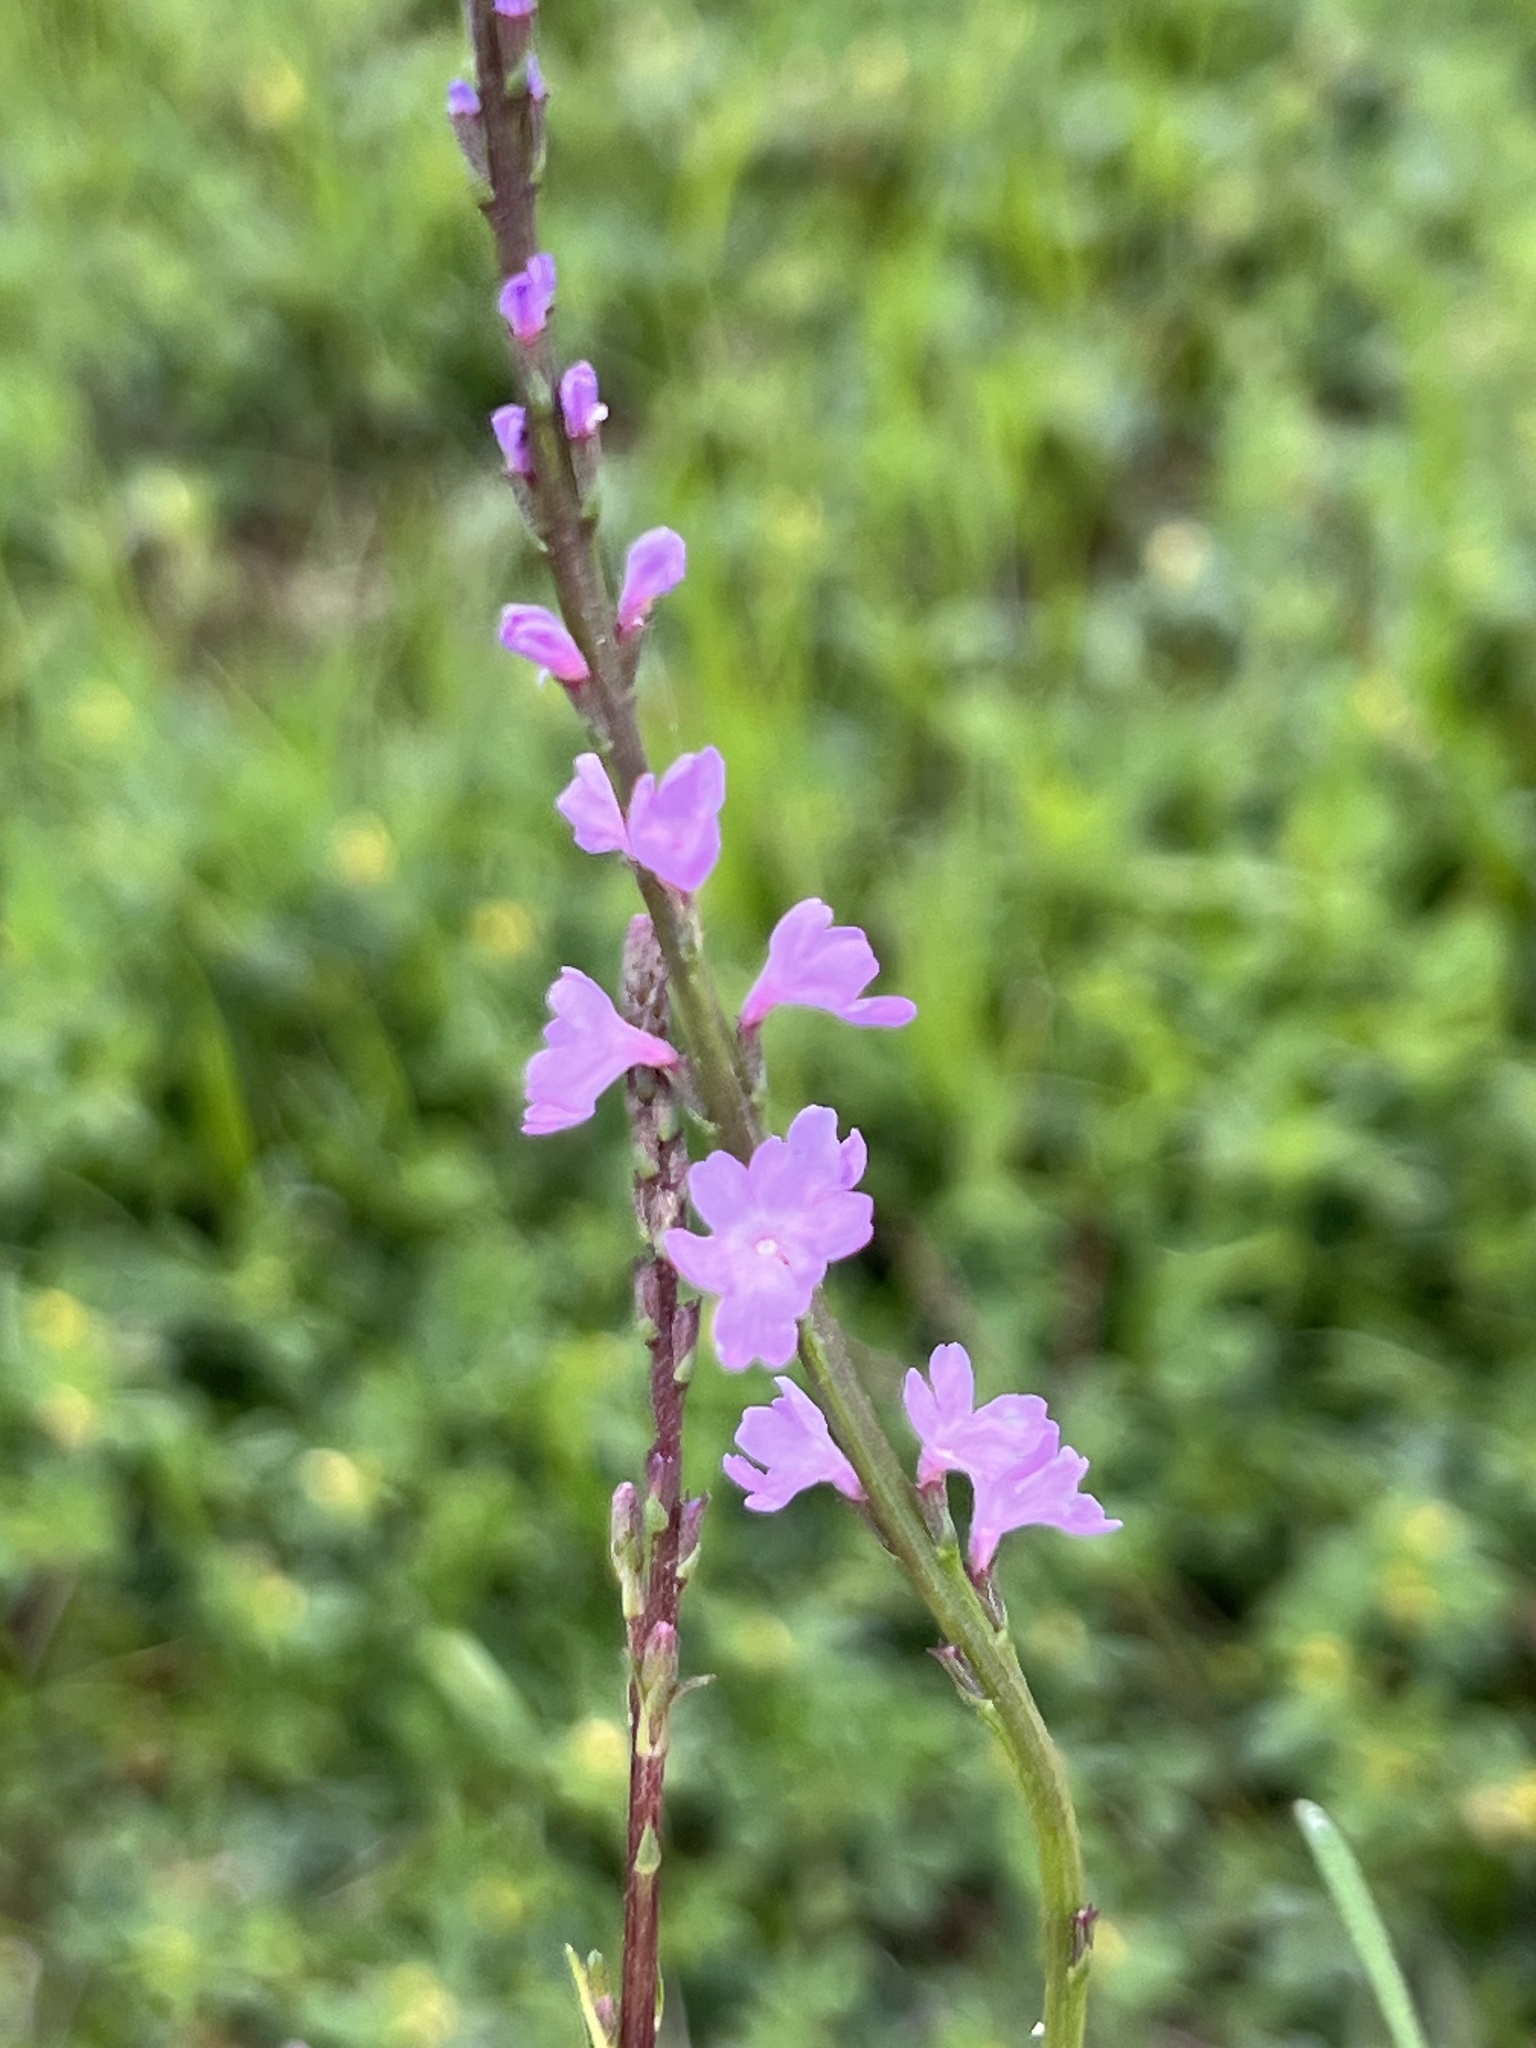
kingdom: Plantae
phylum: Tracheophyta
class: Magnoliopsida
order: Lamiales
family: Verbenaceae
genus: Verbena
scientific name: Verbena halei
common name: Texas vervain
